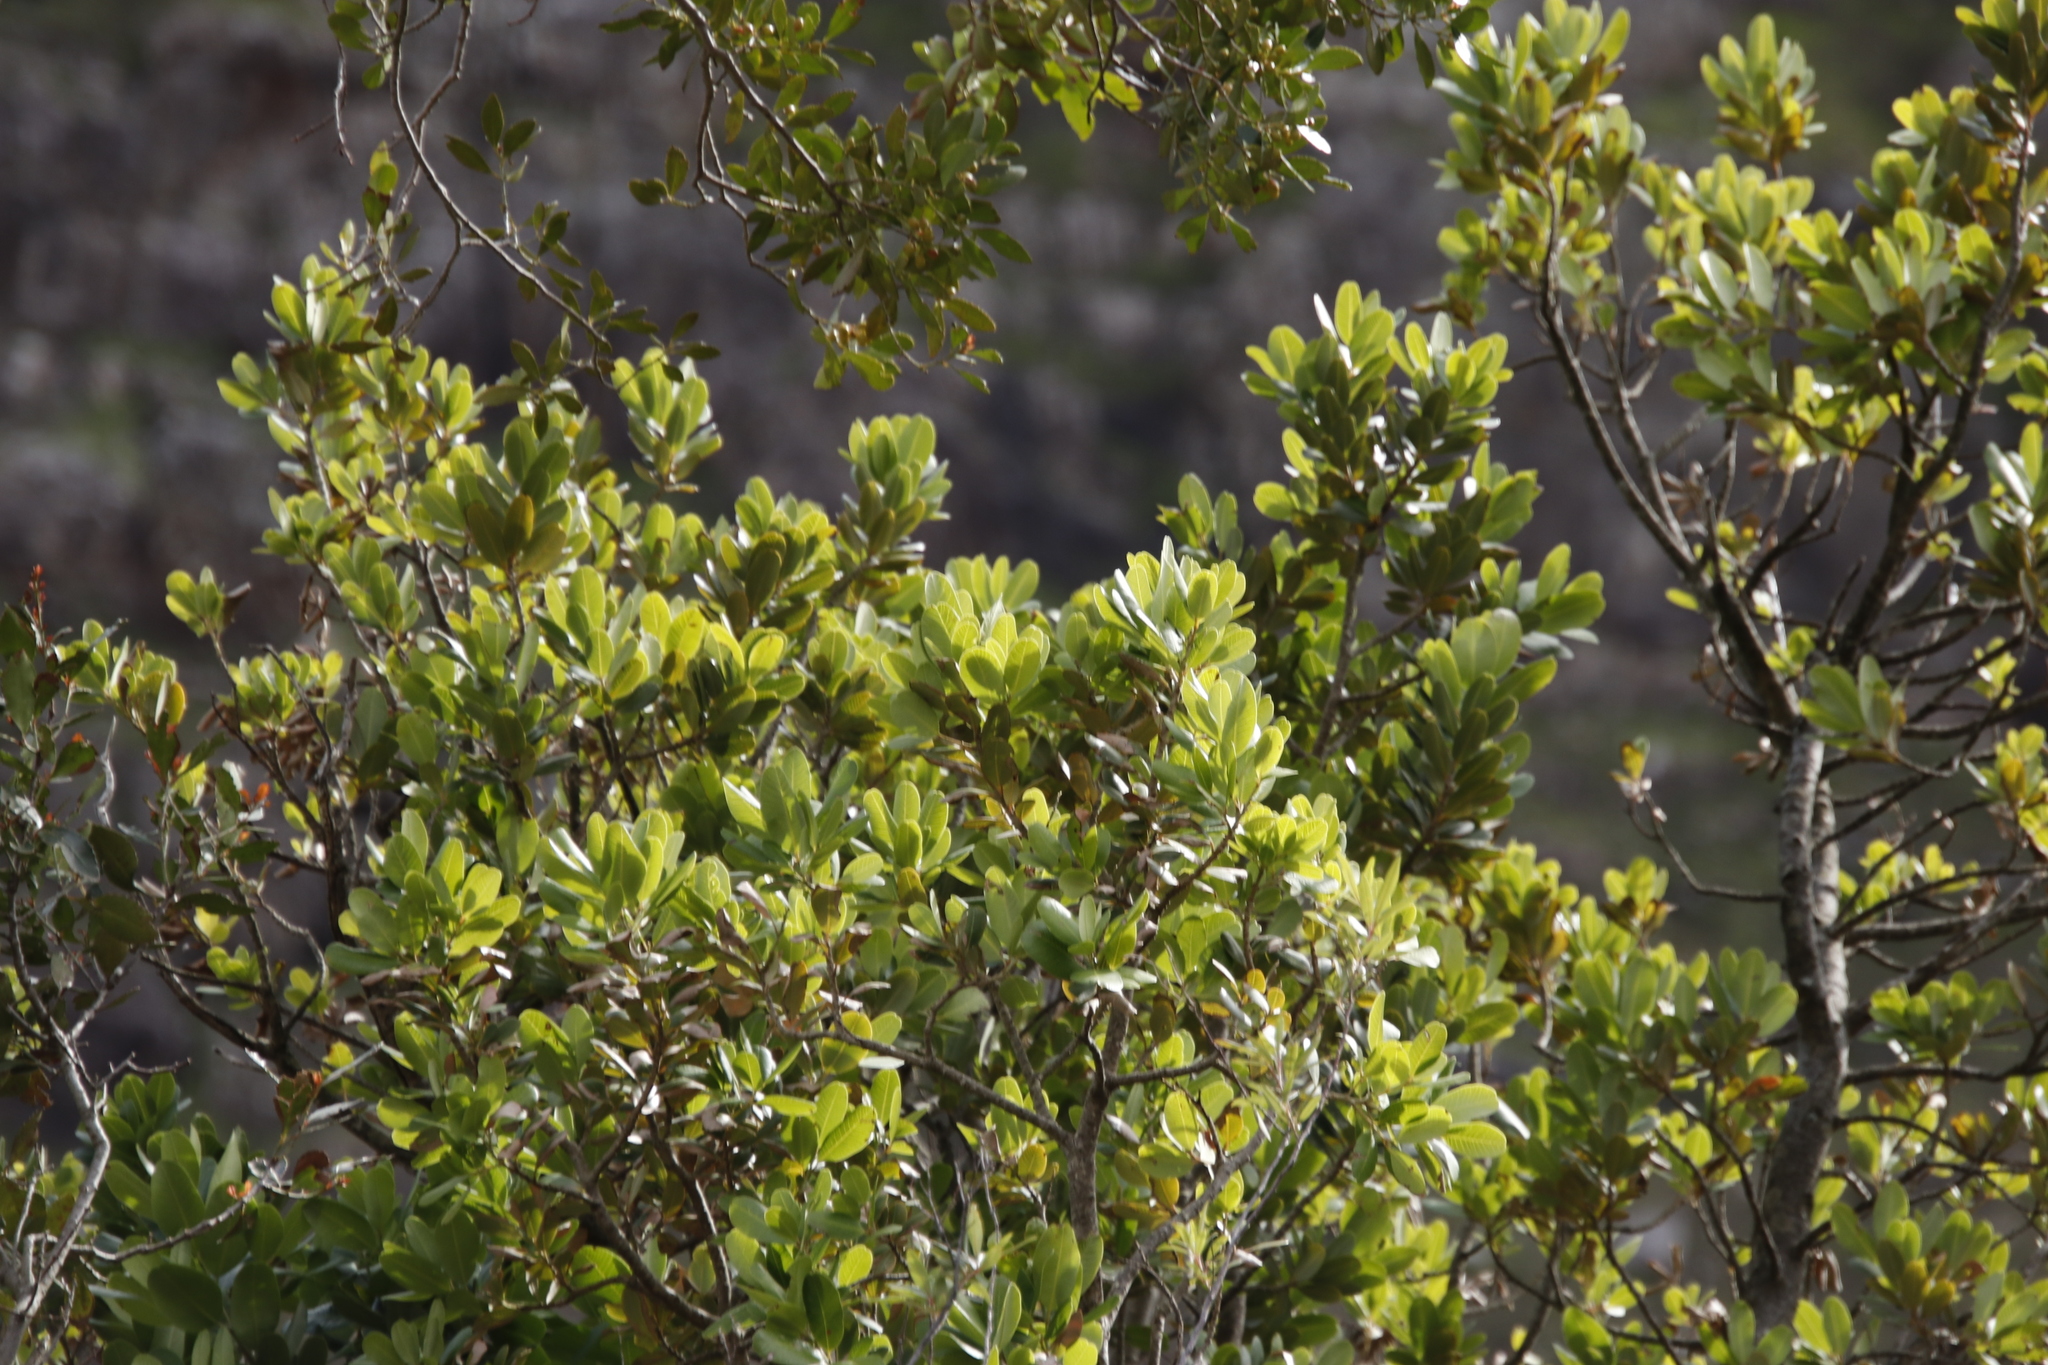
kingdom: Plantae
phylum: Tracheophyta
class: Magnoliopsida
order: Sapindales
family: Anacardiaceae
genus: Heeria
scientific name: Heeria argentea
